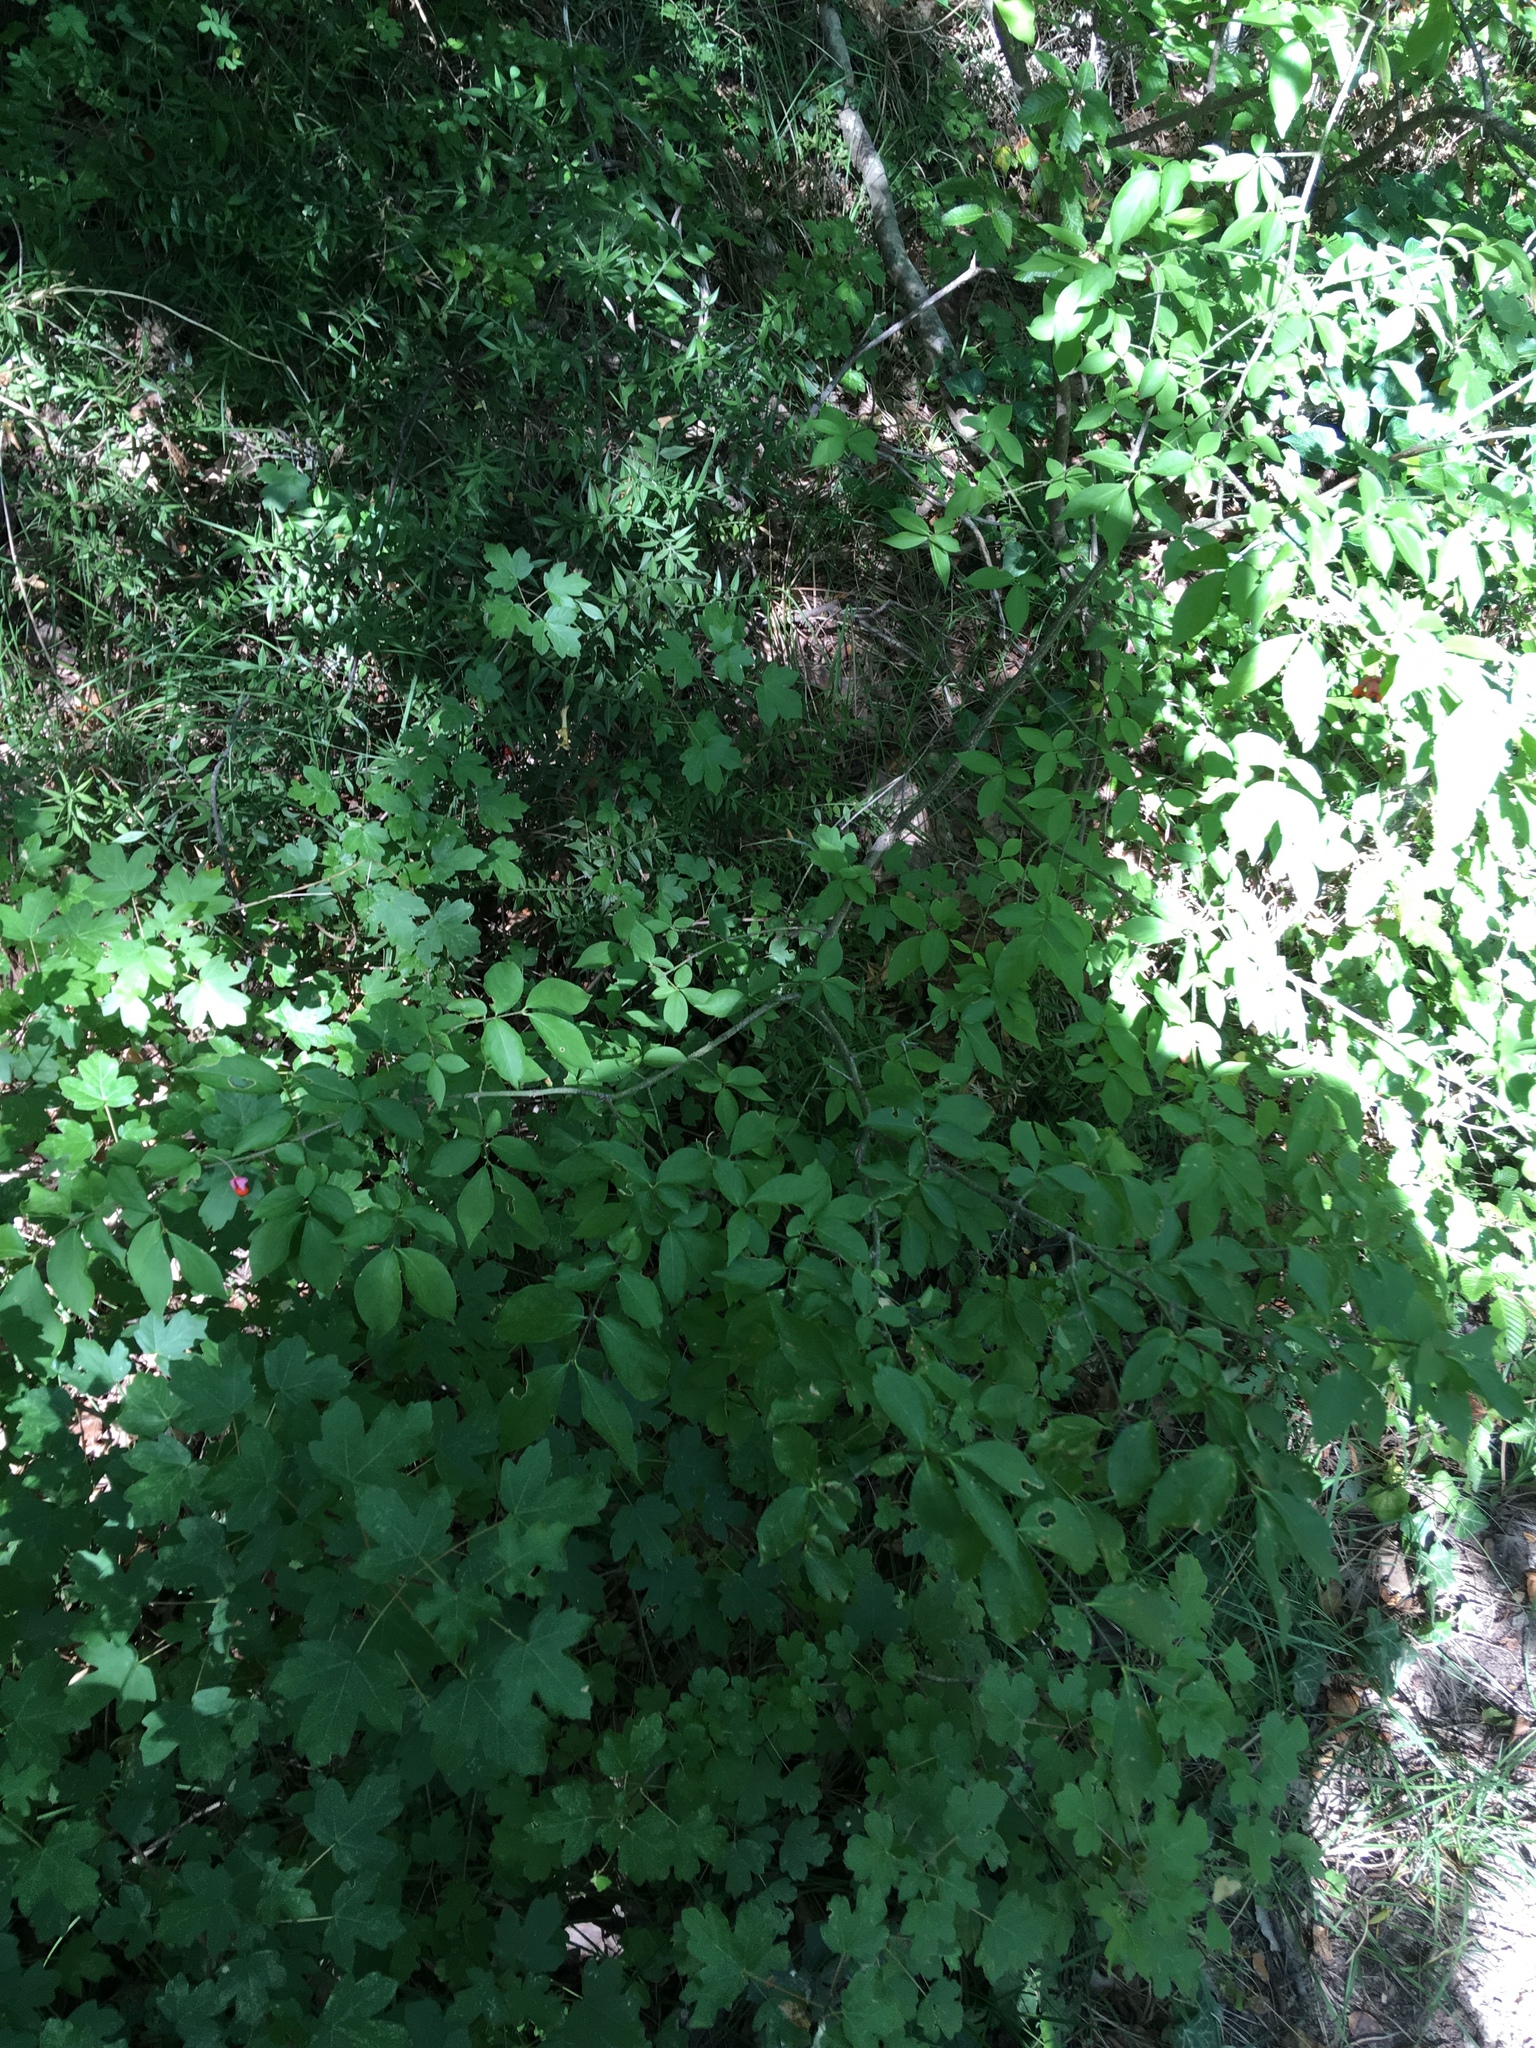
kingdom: Plantae
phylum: Tracheophyta
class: Magnoliopsida
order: Celastrales
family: Celastraceae
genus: Euonymus
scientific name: Euonymus verrucosus
